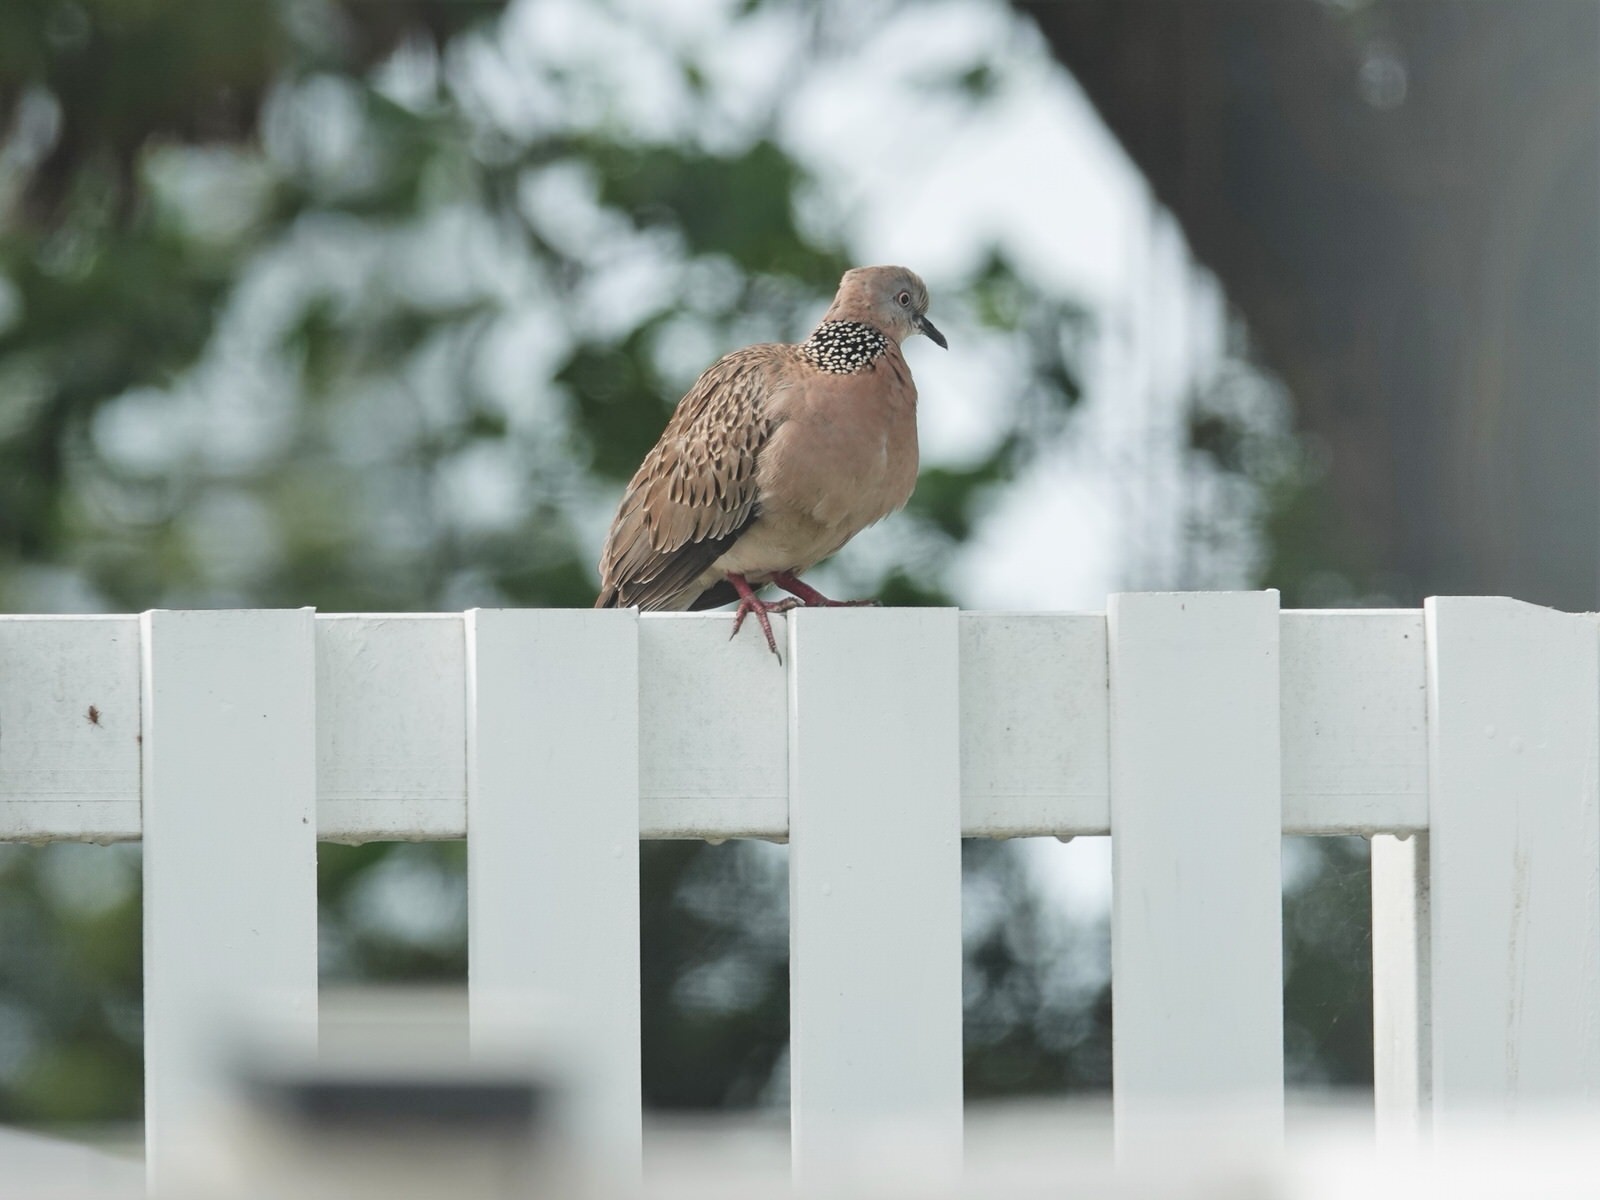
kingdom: Animalia
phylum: Chordata
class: Aves
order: Columbiformes
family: Columbidae
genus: Spilopelia
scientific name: Spilopelia chinensis
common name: Spotted dove
